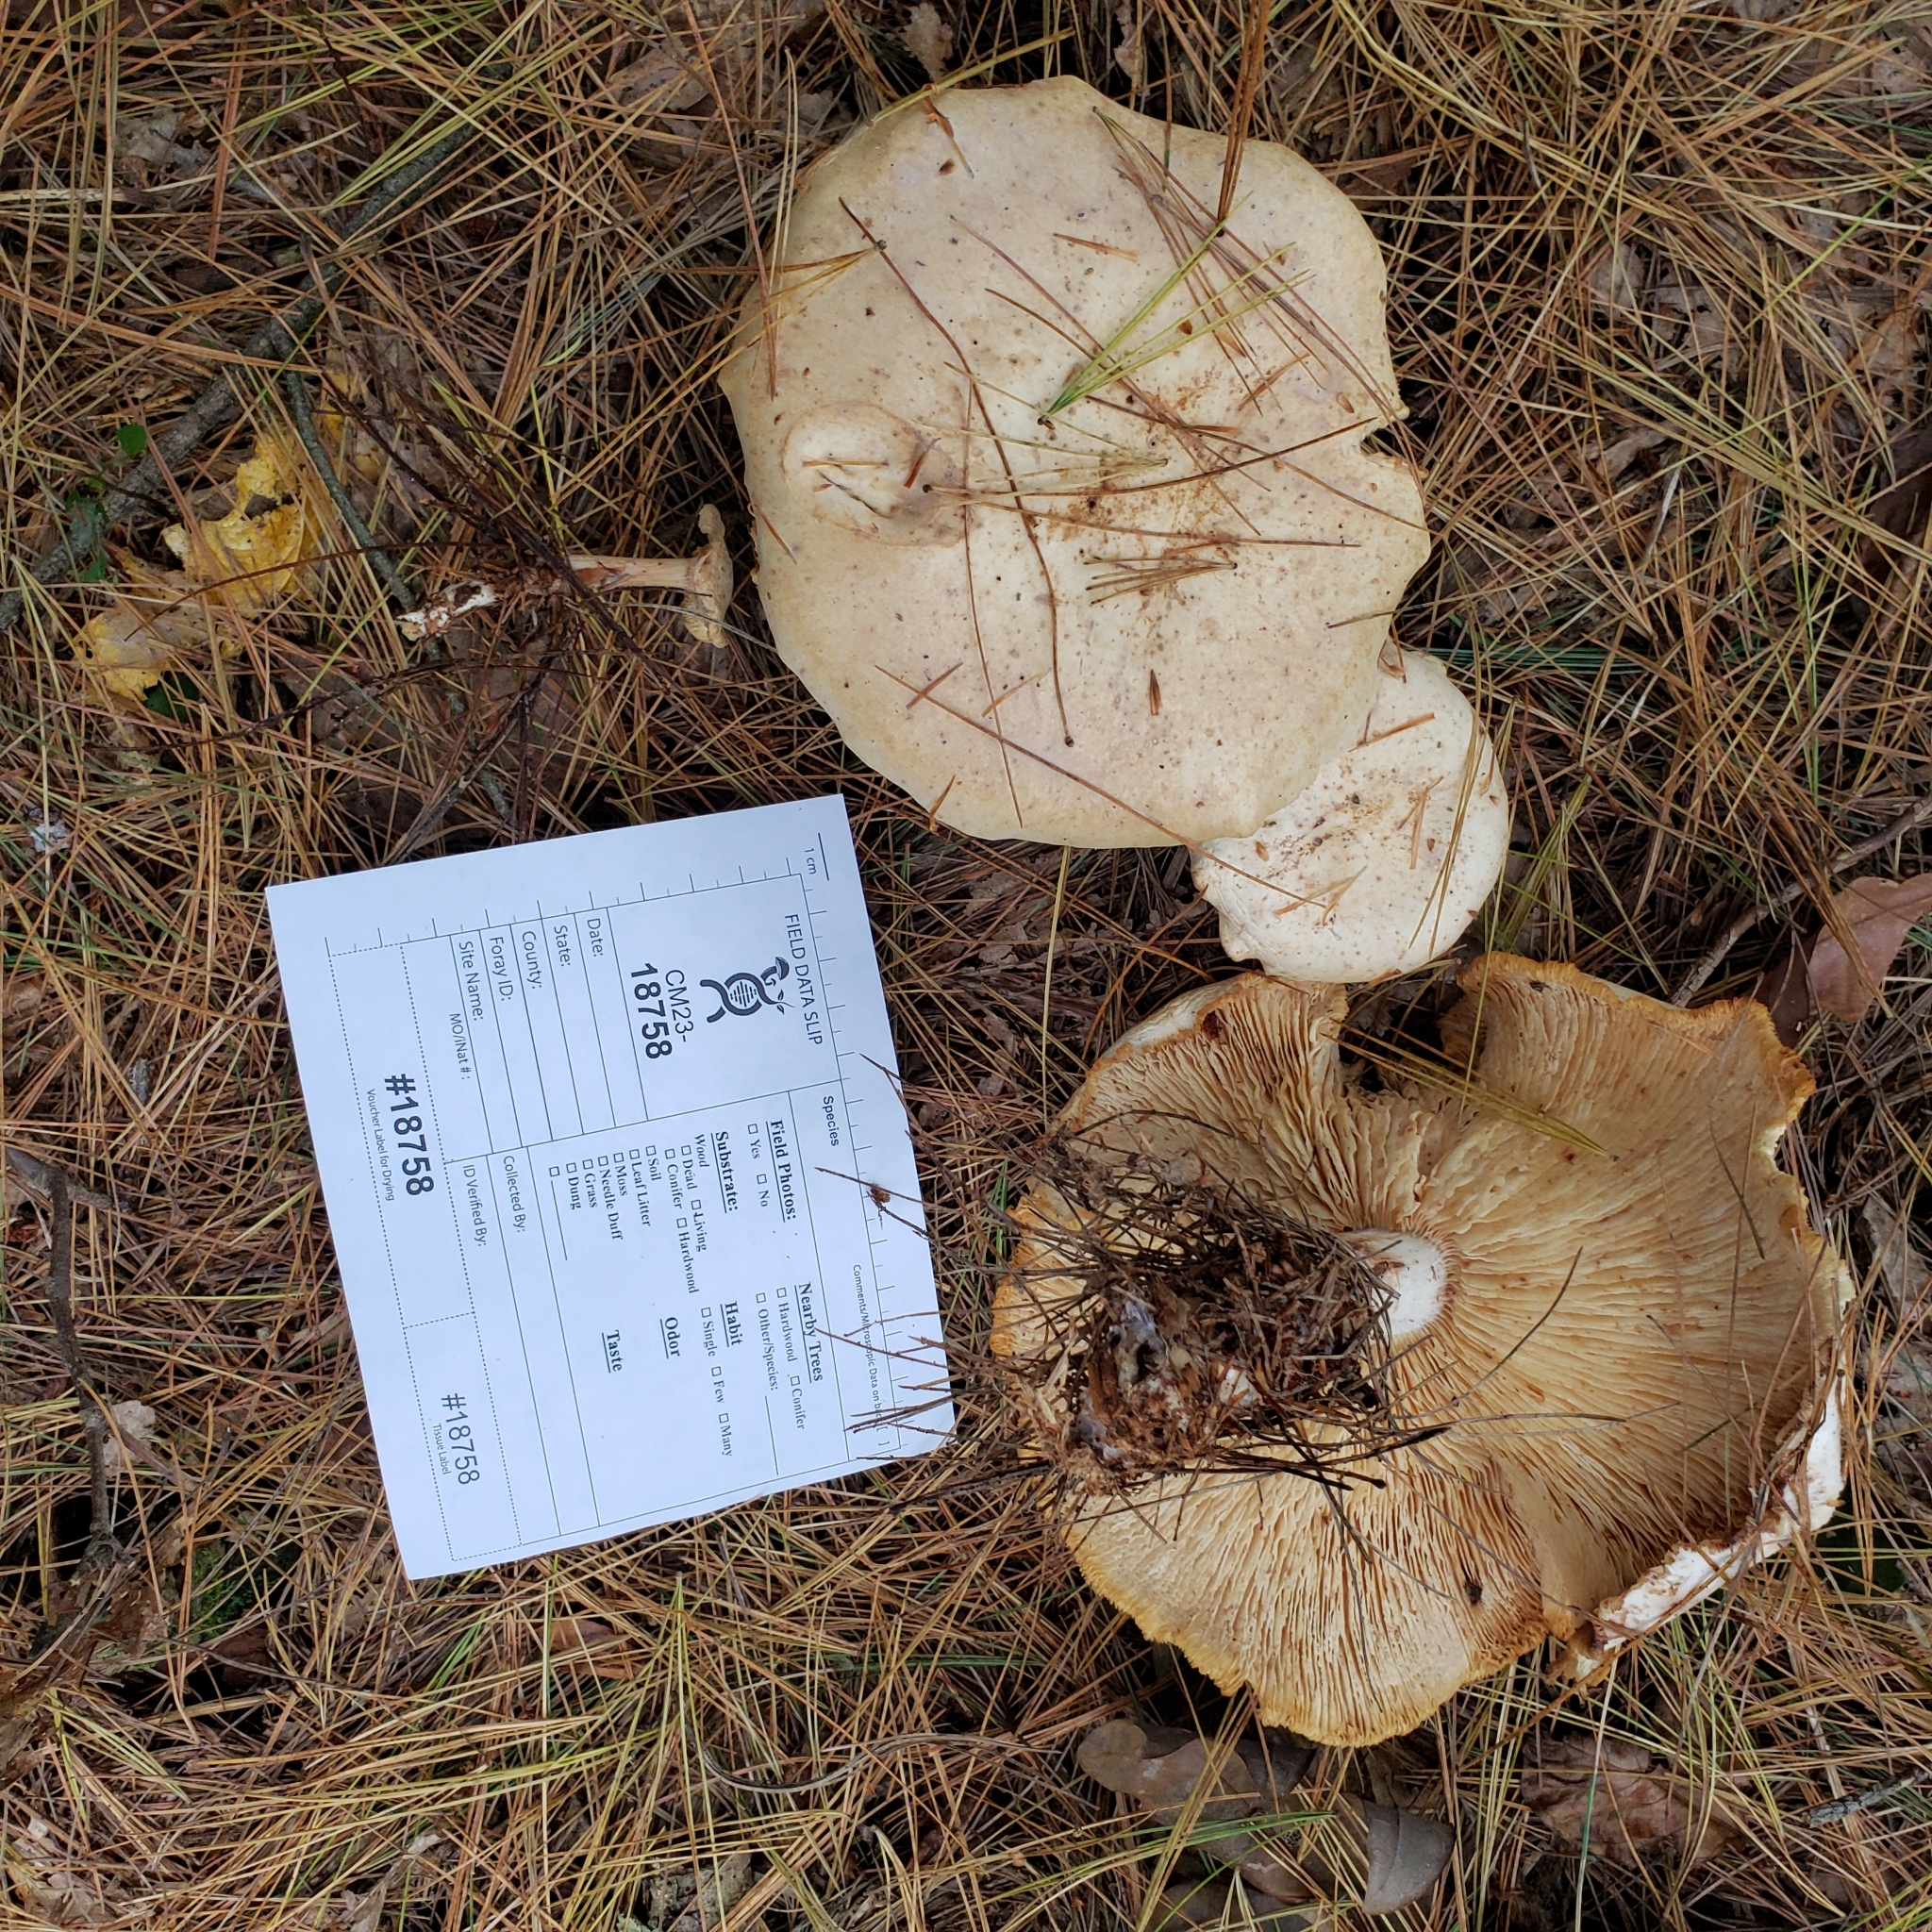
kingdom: Fungi
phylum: Basidiomycota
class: Agaricomycetes
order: Agaricales
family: Omphalotaceae
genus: Rhodocollybia
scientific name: Rhodocollybia maculata
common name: Spotted tough-shank
